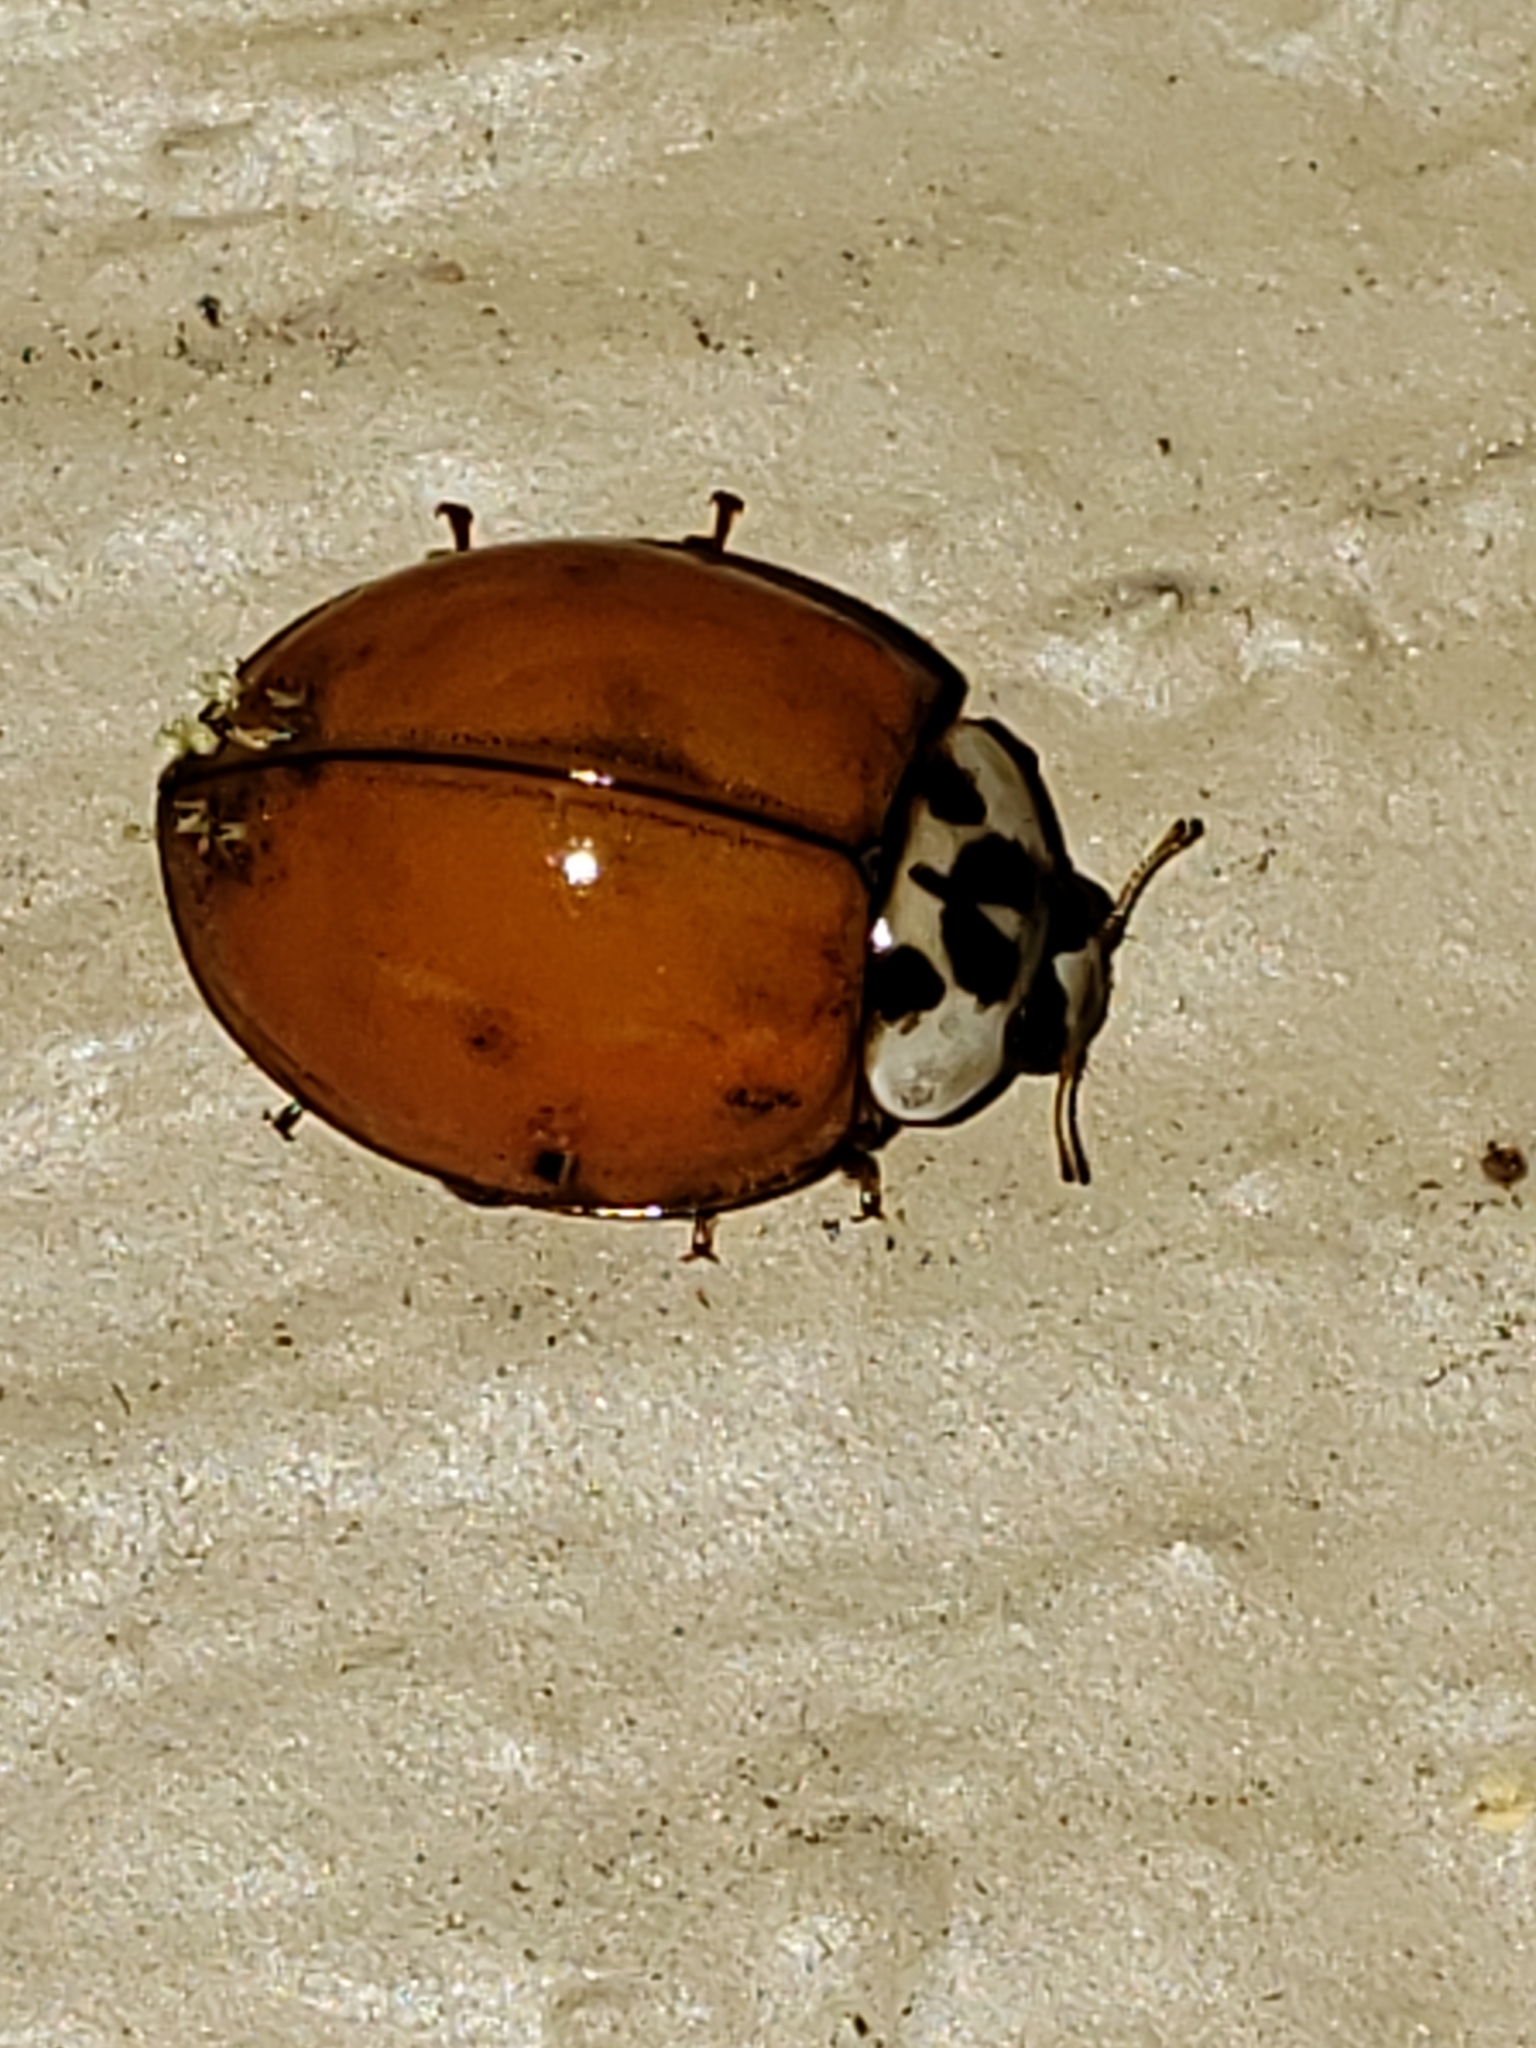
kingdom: Fungi
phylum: Ascomycota
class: Laboulbeniomycetes
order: Laboulbeniales
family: Laboulbeniaceae
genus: Hesperomyces
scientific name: Hesperomyces harmoniae
